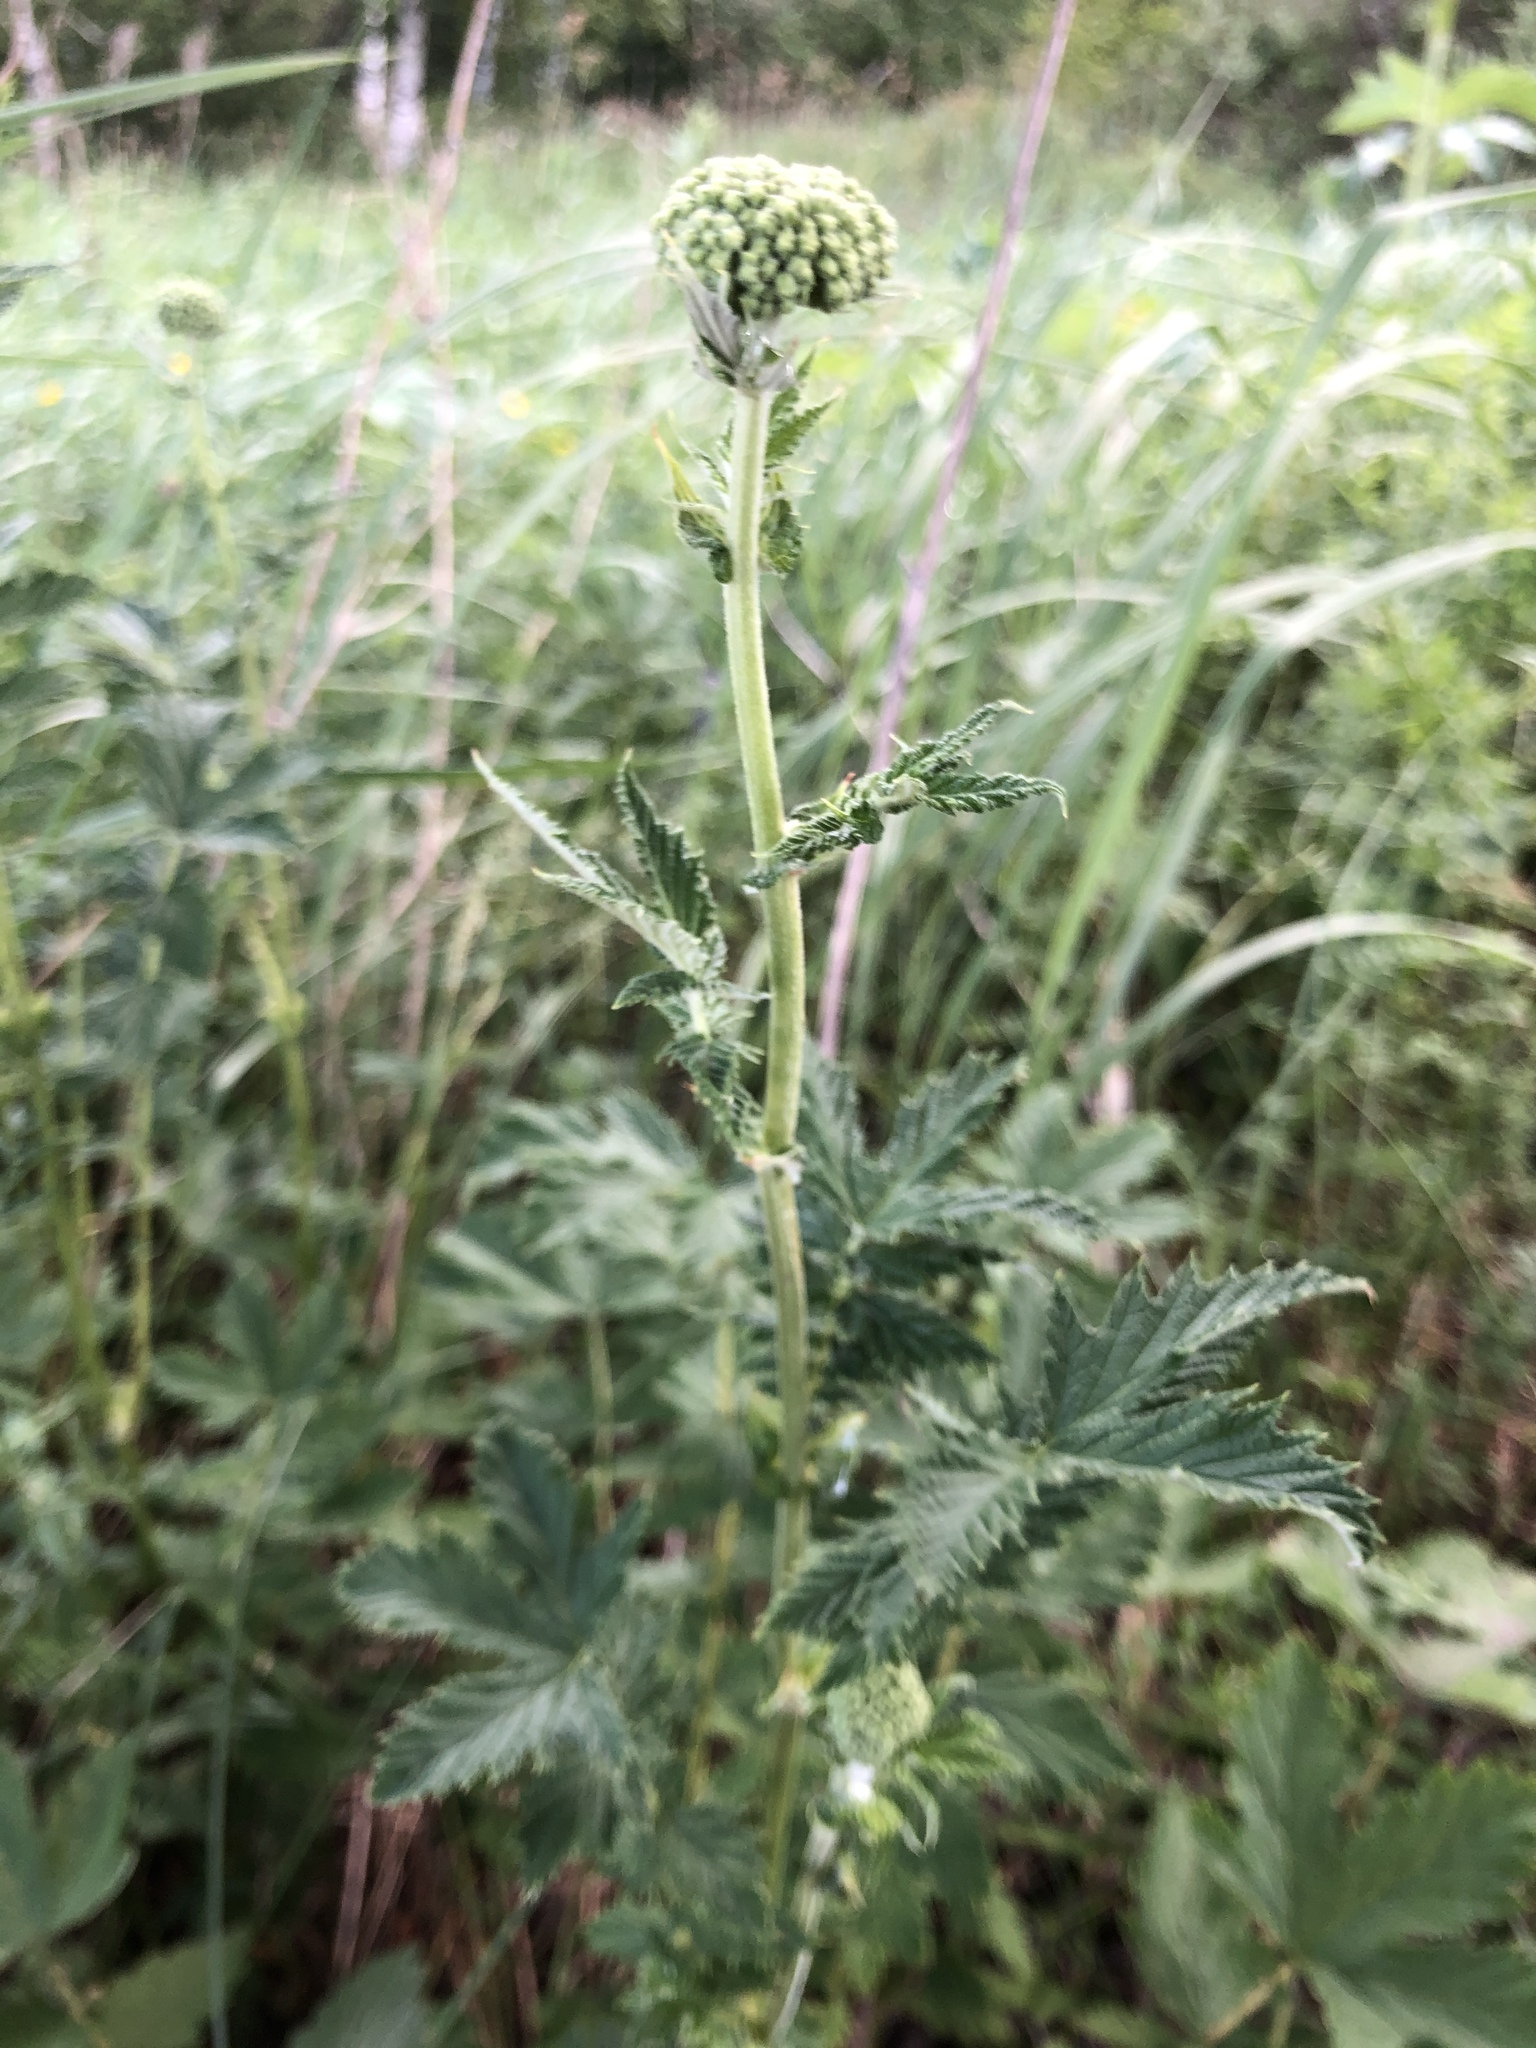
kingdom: Plantae
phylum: Tracheophyta
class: Magnoliopsida
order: Rosales
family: Rosaceae
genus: Filipendula
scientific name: Filipendula ulmaria
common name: Meadowsweet
